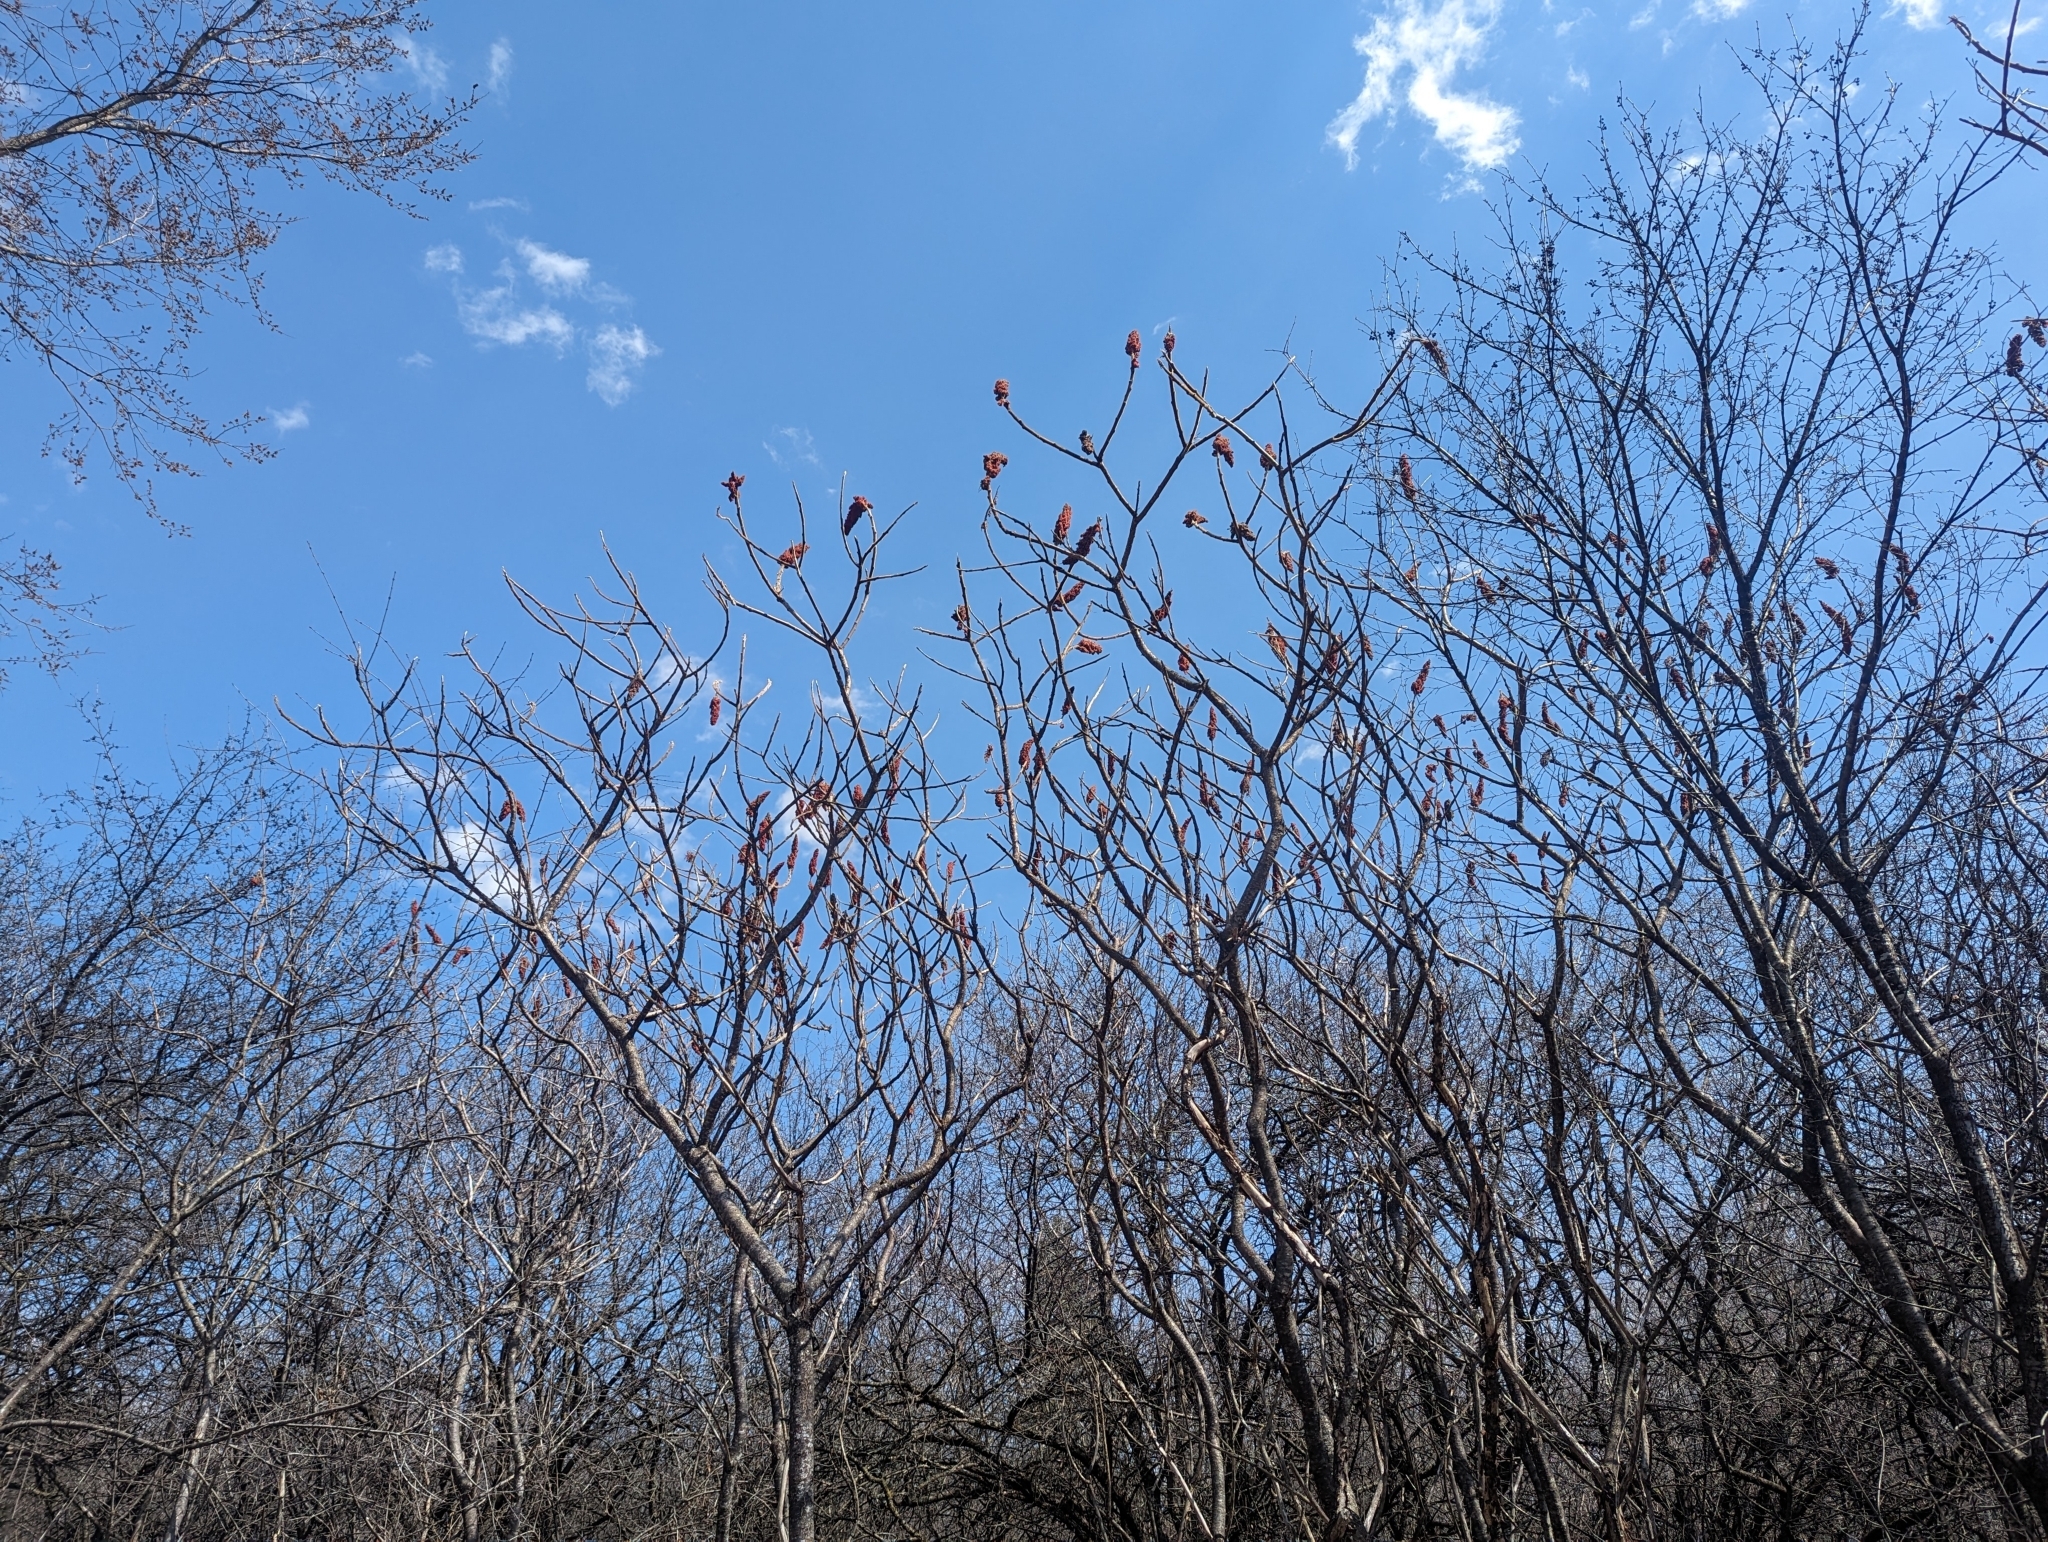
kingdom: Plantae
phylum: Tracheophyta
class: Magnoliopsida
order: Sapindales
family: Anacardiaceae
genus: Rhus
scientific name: Rhus typhina
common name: Staghorn sumac
